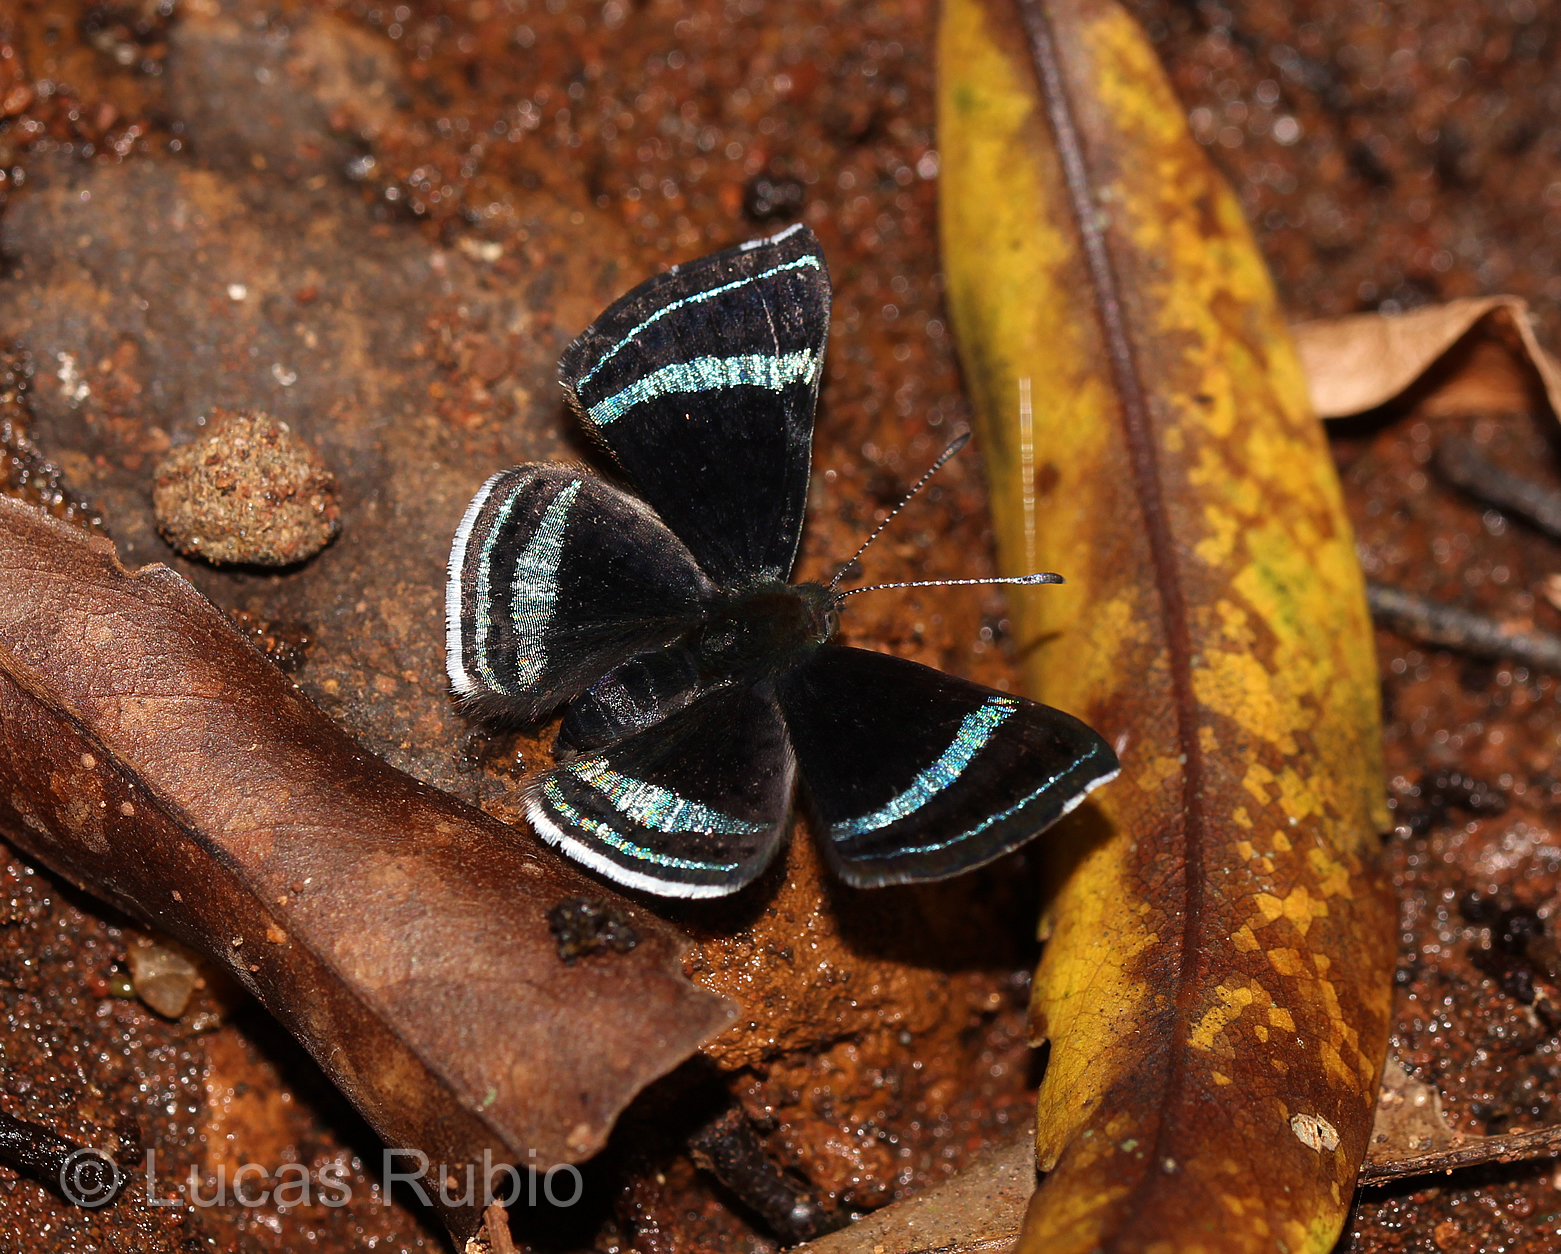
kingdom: Animalia
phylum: Arthropoda
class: Insecta
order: Lepidoptera
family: Riodinidae
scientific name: Riodinidae
